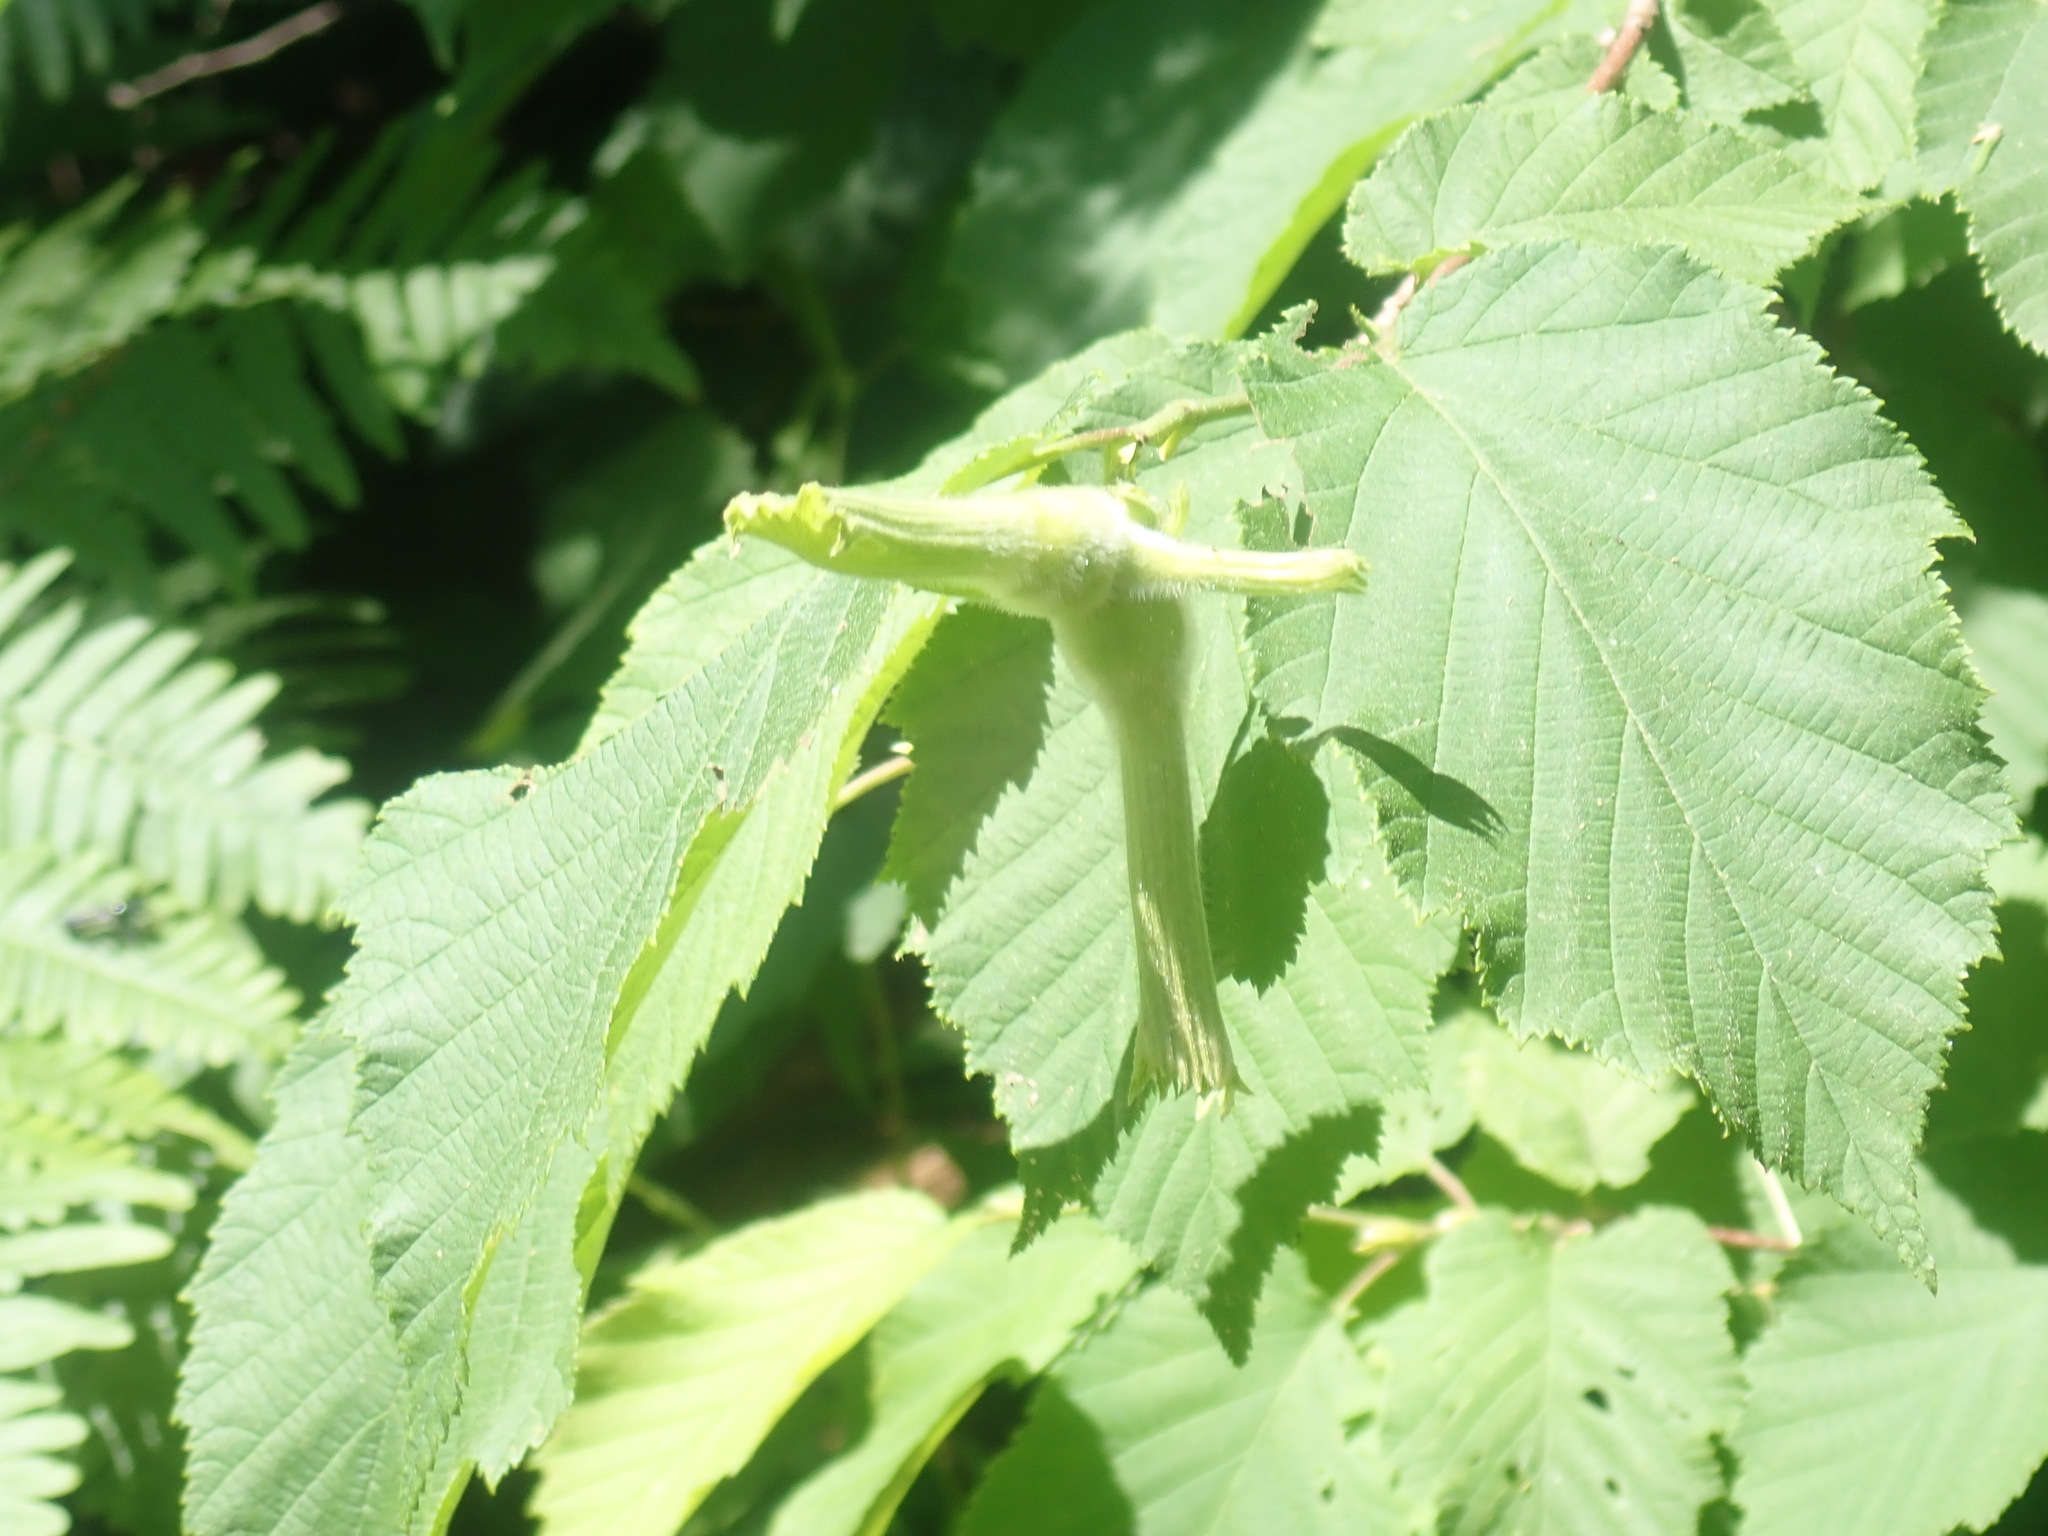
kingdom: Plantae
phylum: Tracheophyta
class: Magnoliopsida
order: Fagales
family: Betulaceae
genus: Corylus
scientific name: Corylus cornuta
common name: Beaked hazel
